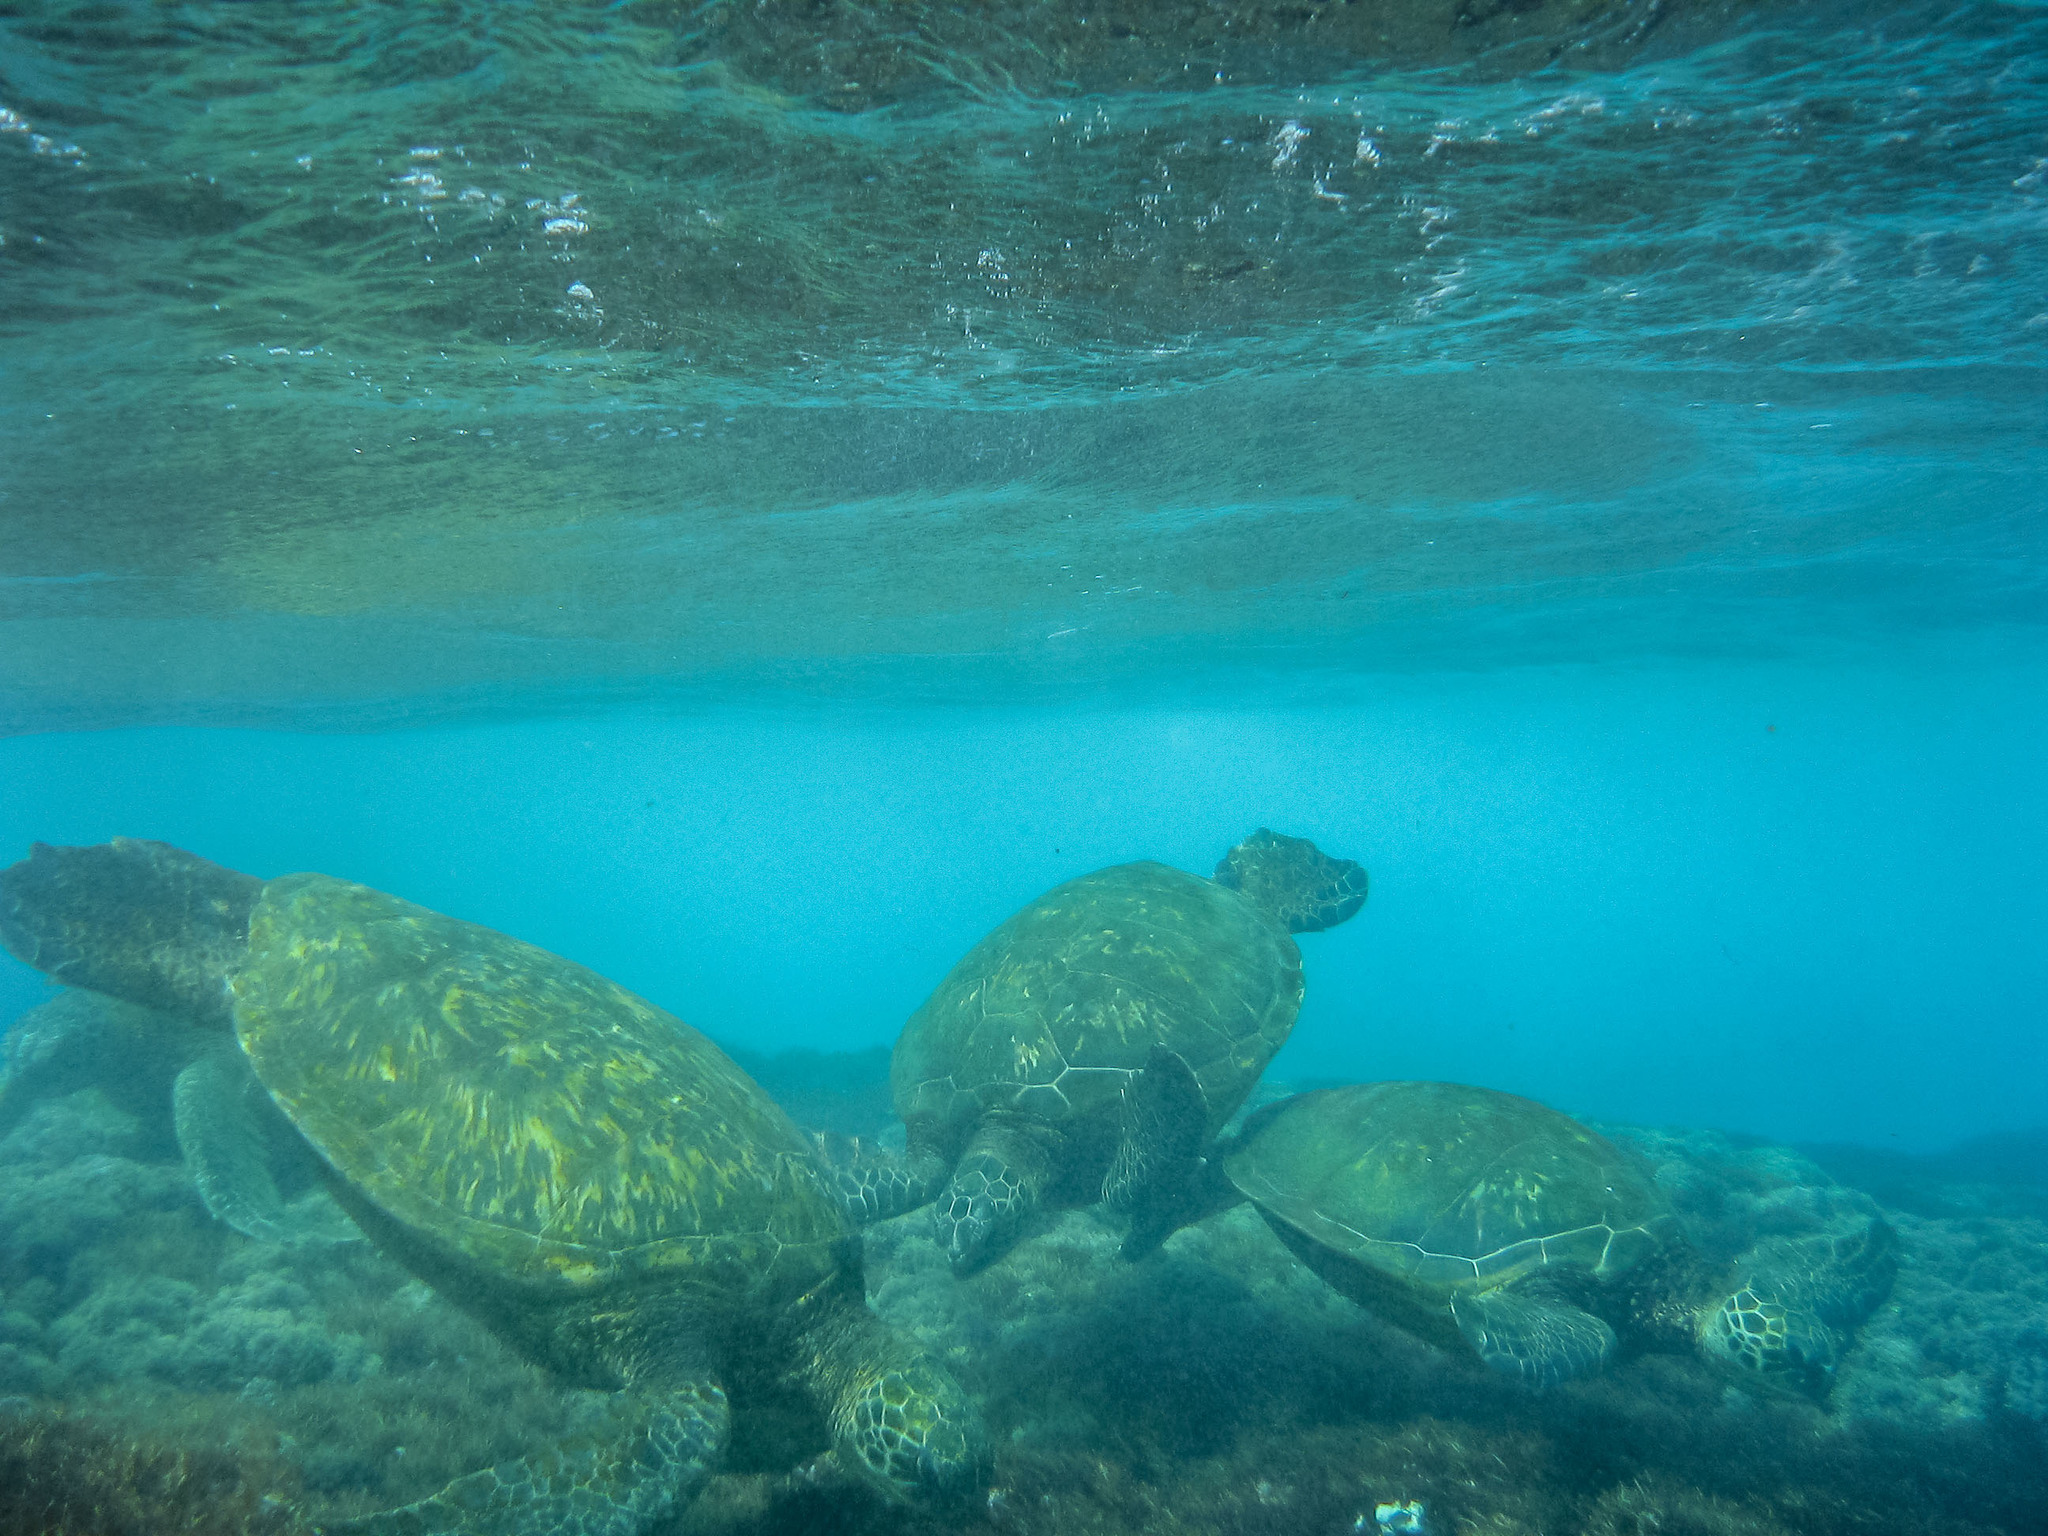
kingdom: Animalia
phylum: Chordata
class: Testudines
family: Cheloniidae
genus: Chelonia
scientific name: Chelonia mydas
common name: Green turtle
